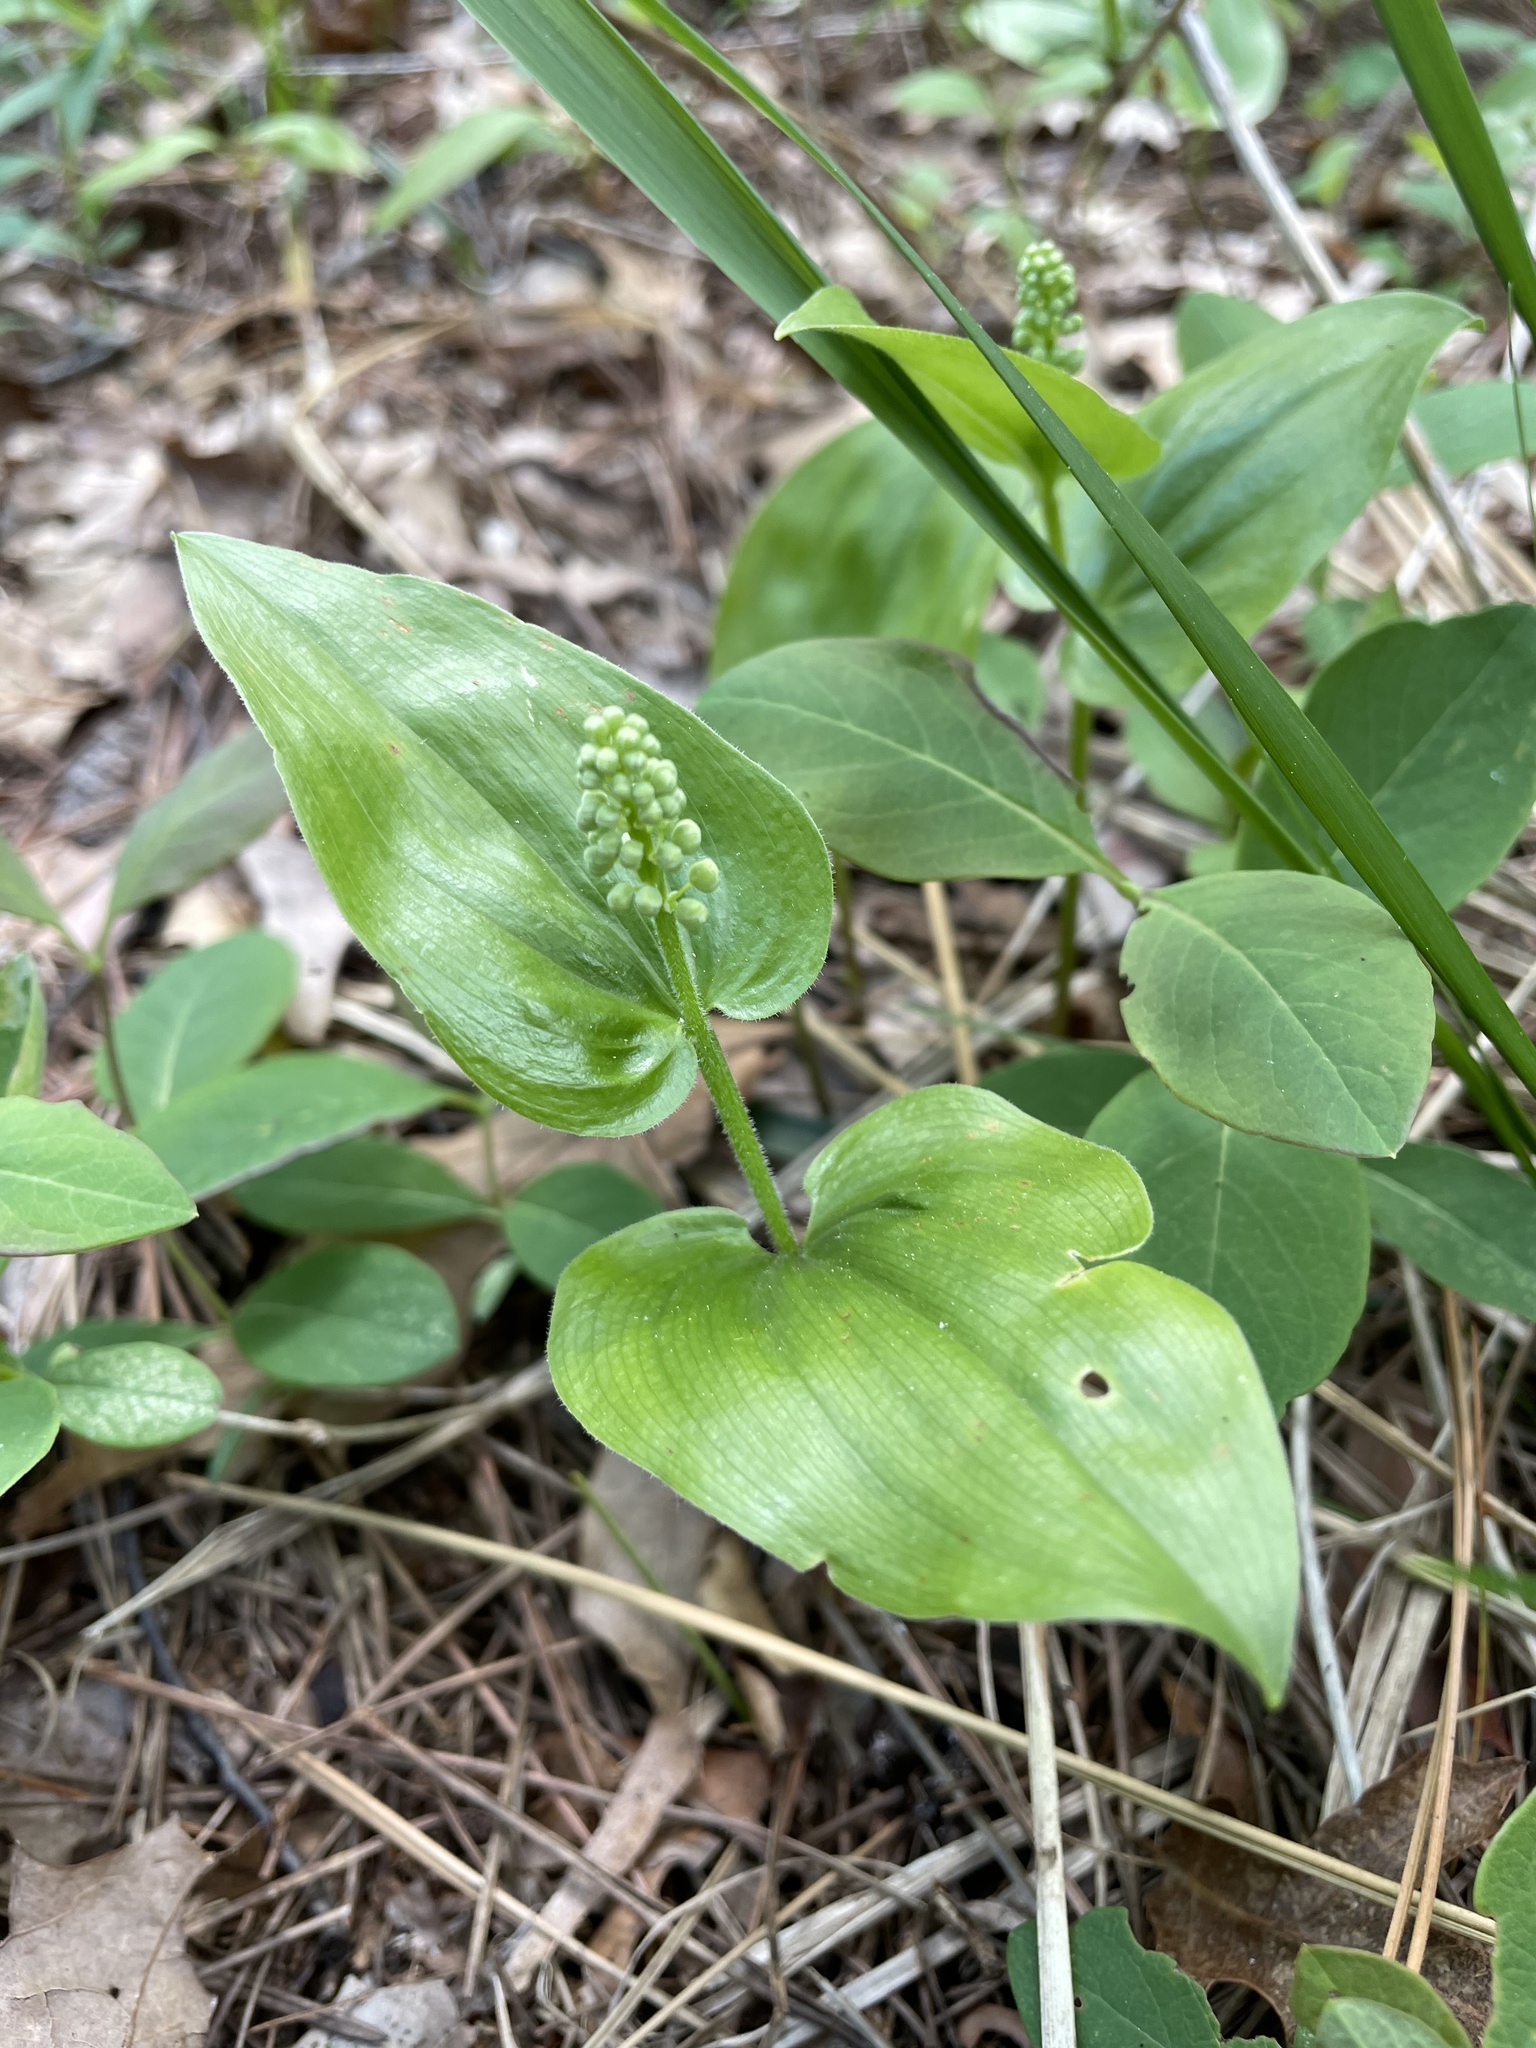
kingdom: Plantae
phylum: Tracheophyta
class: Liliopsida
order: Asparagales
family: Asparagaceae
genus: Maianthemum
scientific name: Maianthemum canadense
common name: False lily-of-the-valley
